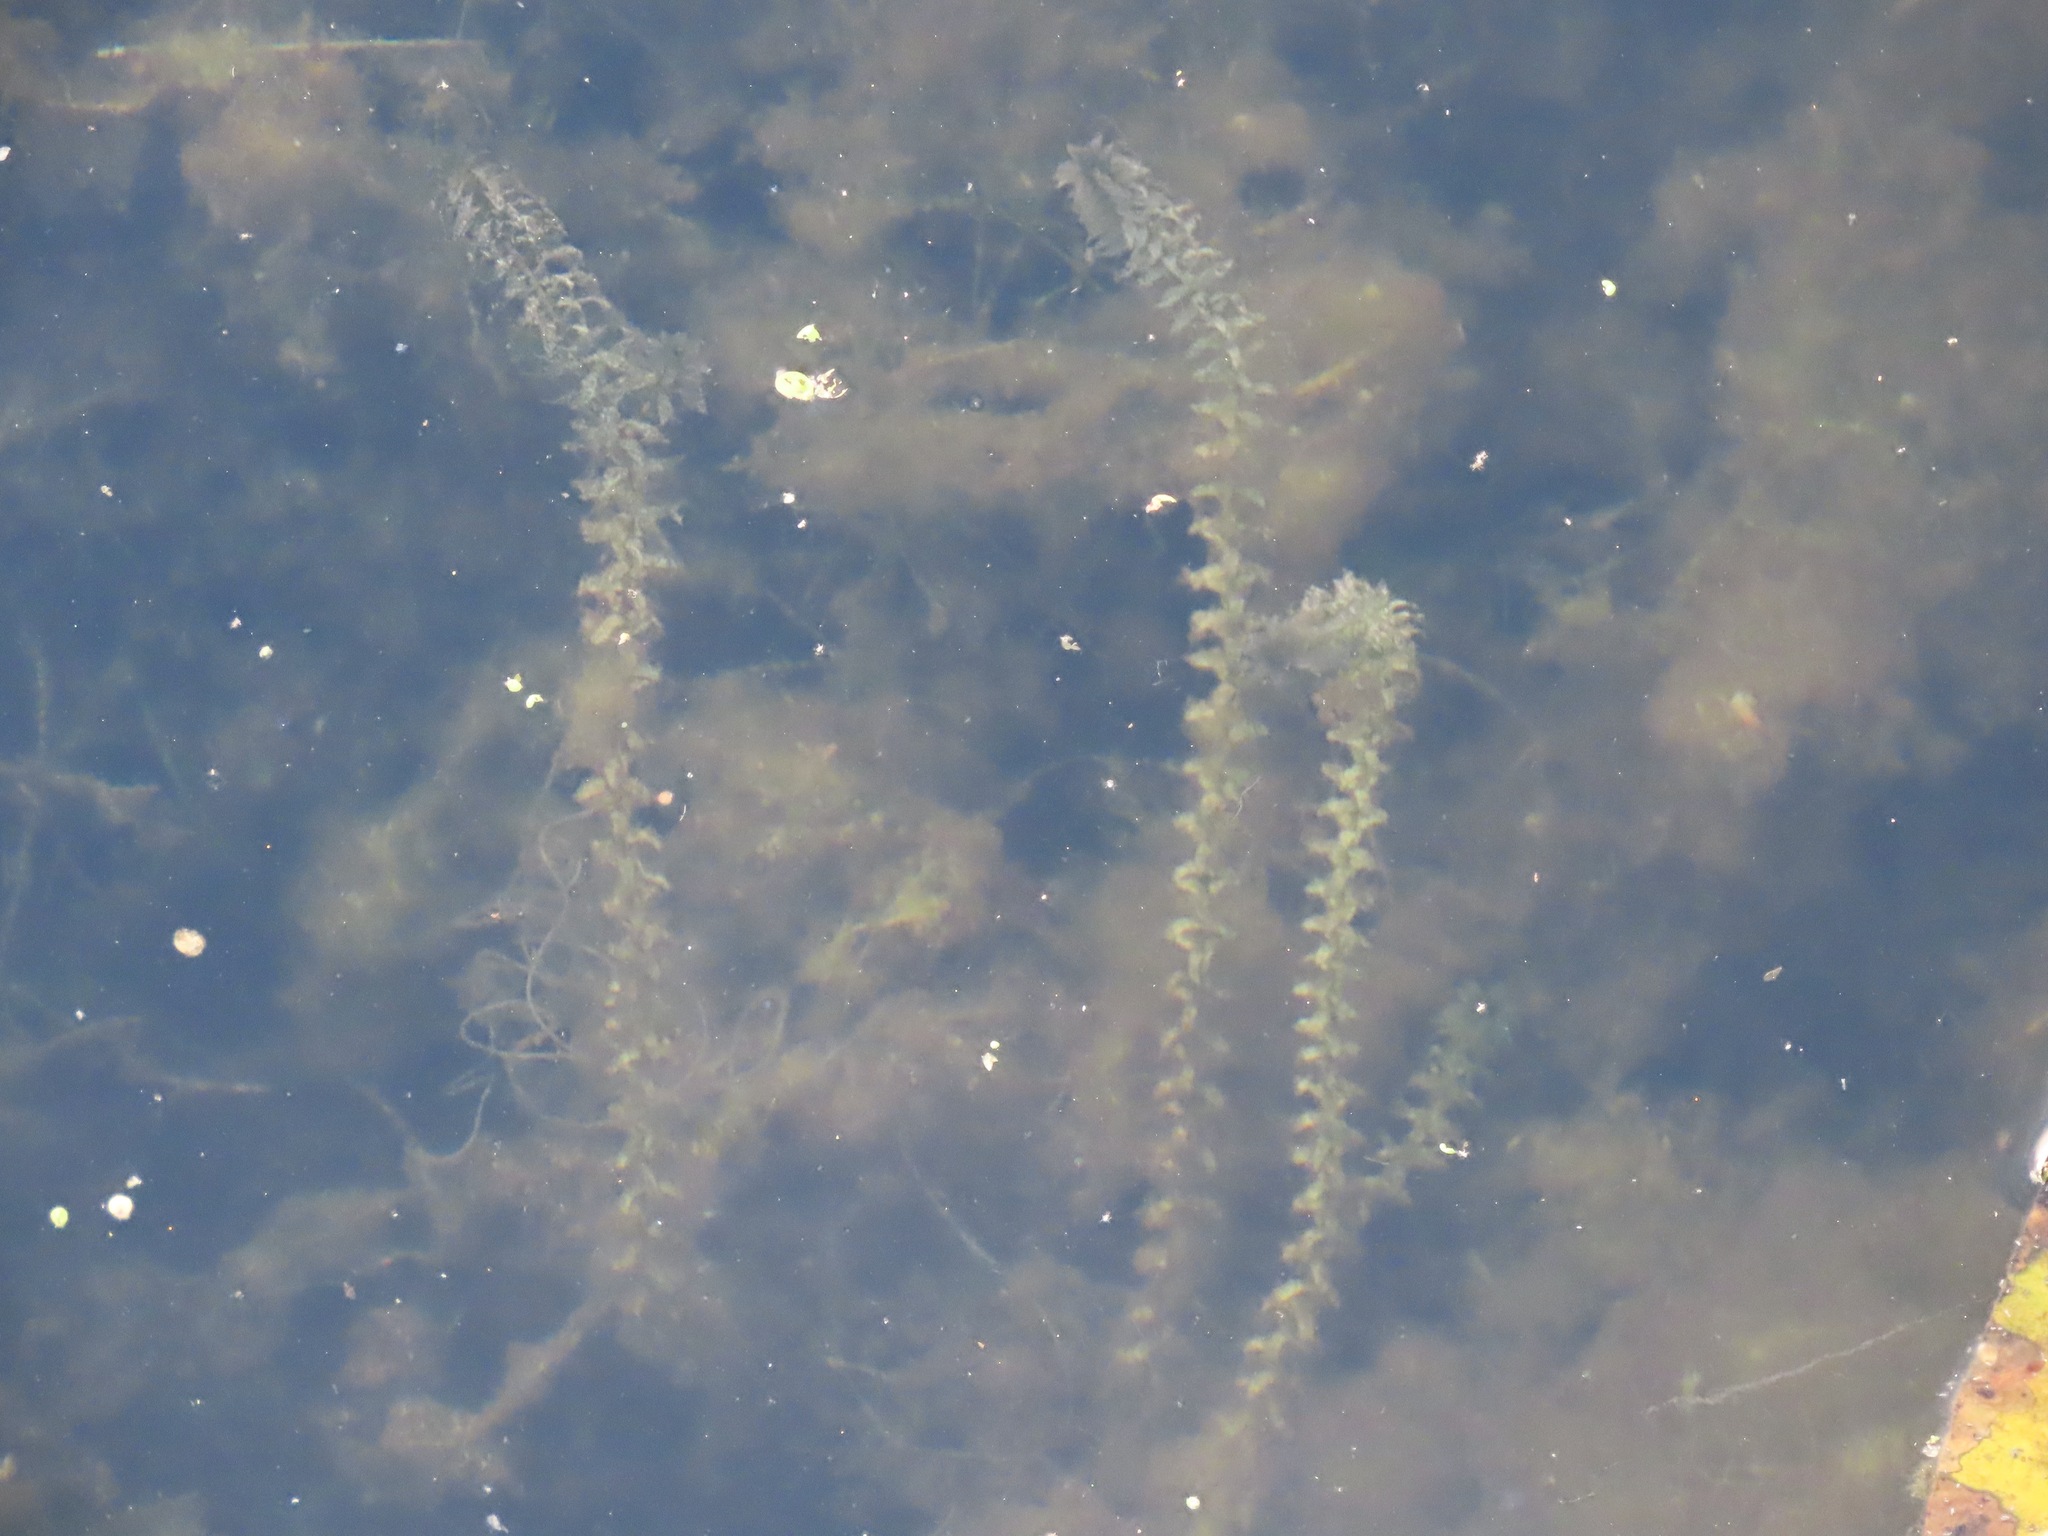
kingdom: Plantae
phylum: Tracheophyta
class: Liliopsida
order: Alismatales
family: Hydrocharitaceae
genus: Elodea
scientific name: Elodea canadensis
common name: Canadian waterweed
